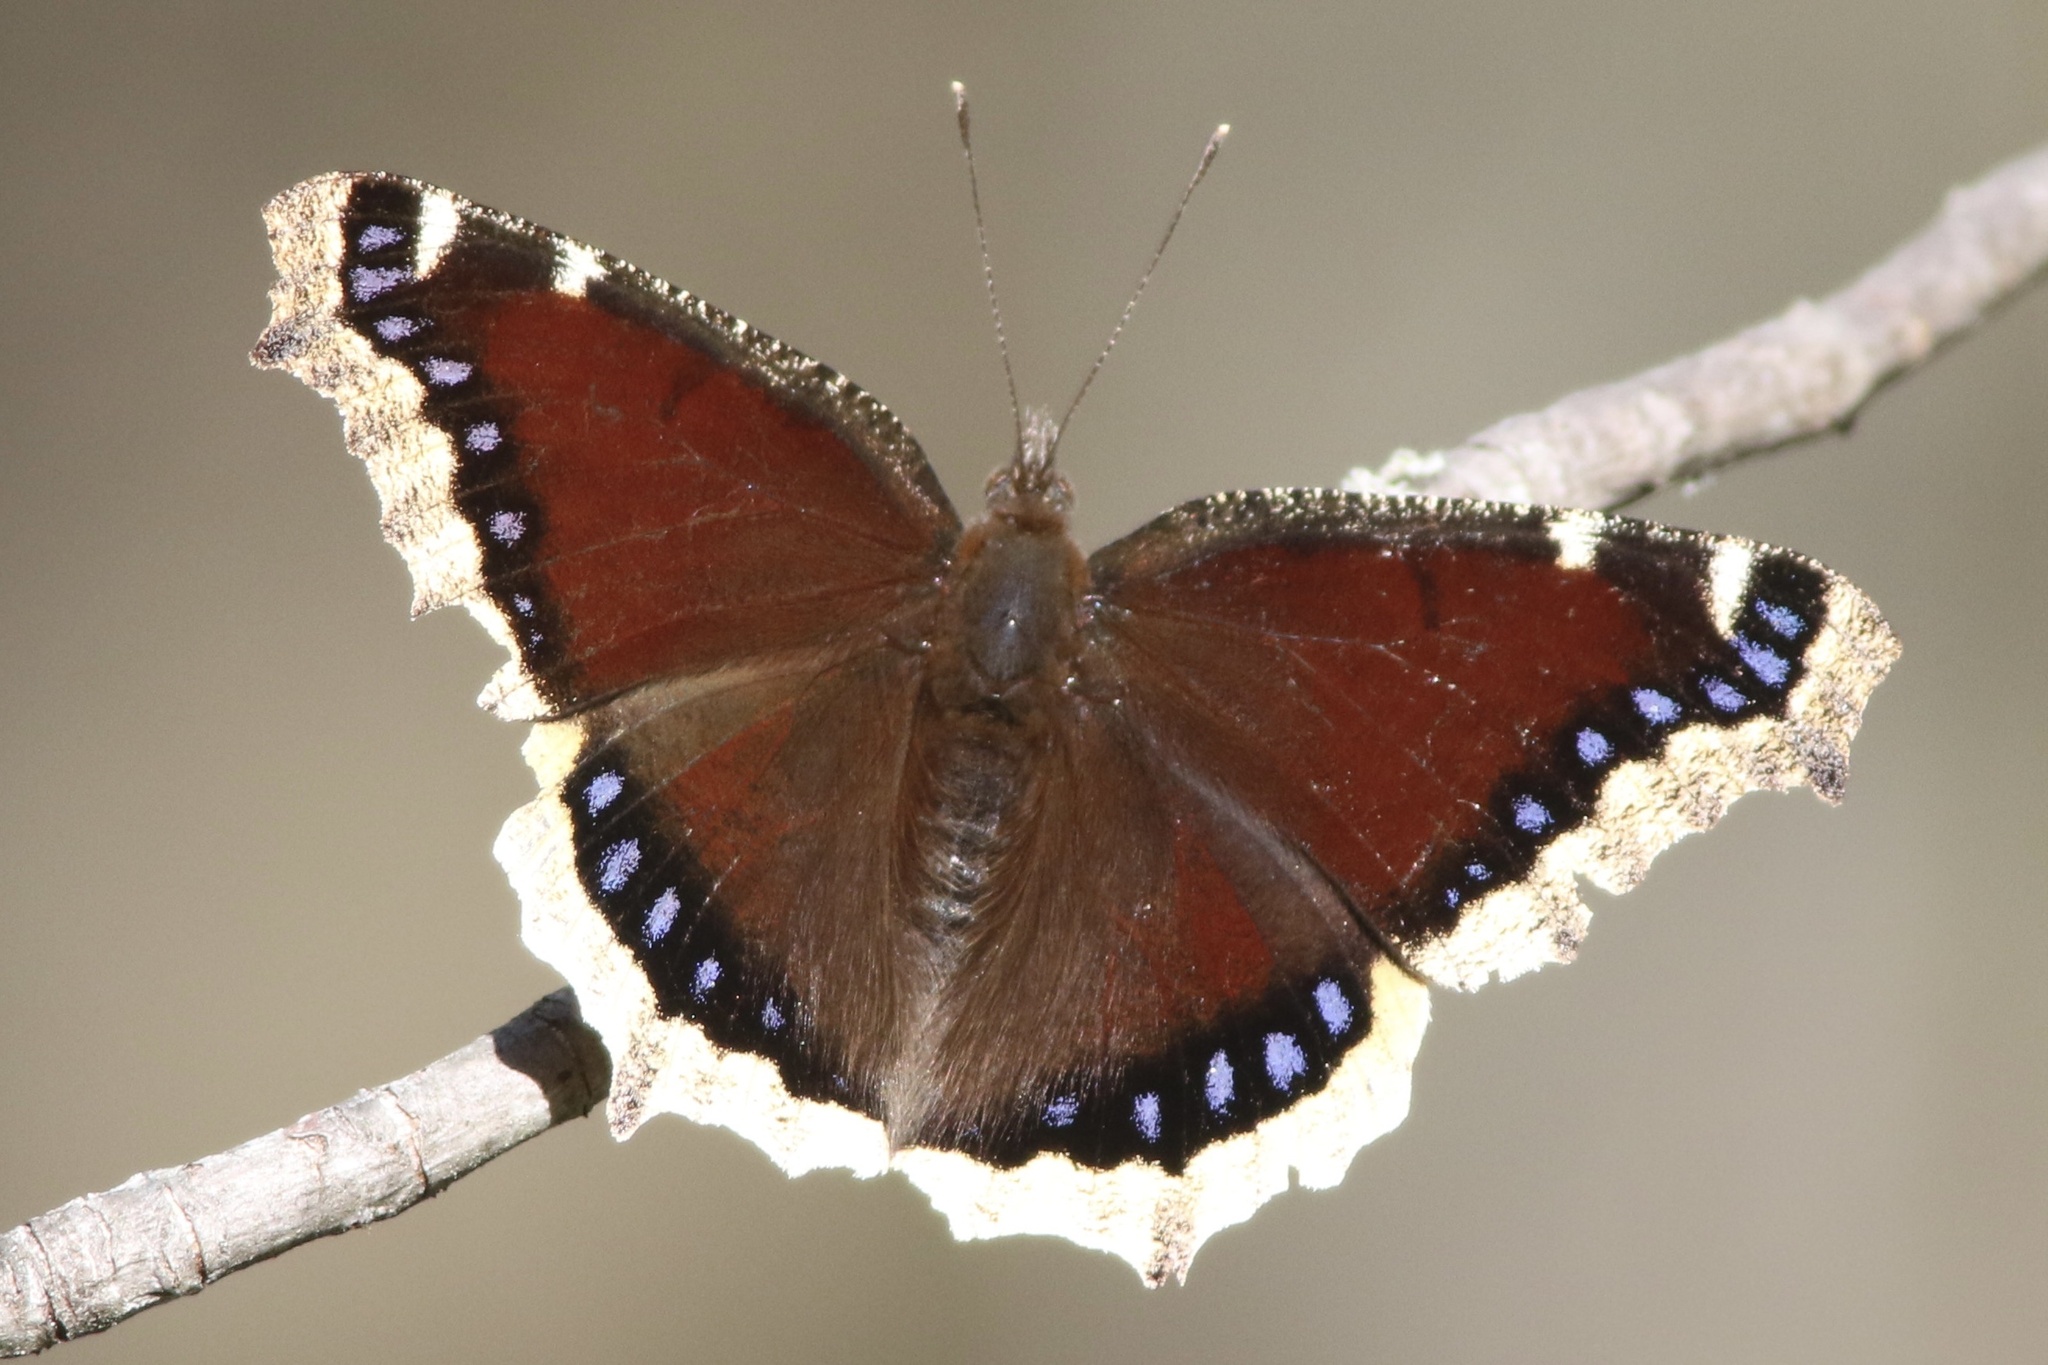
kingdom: Animalia
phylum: Arthropoda
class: Insecta
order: Lepidoptera
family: Nymphalidae
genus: Nymphalis
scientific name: Nymphalis antiopa
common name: Camberwell beauty
